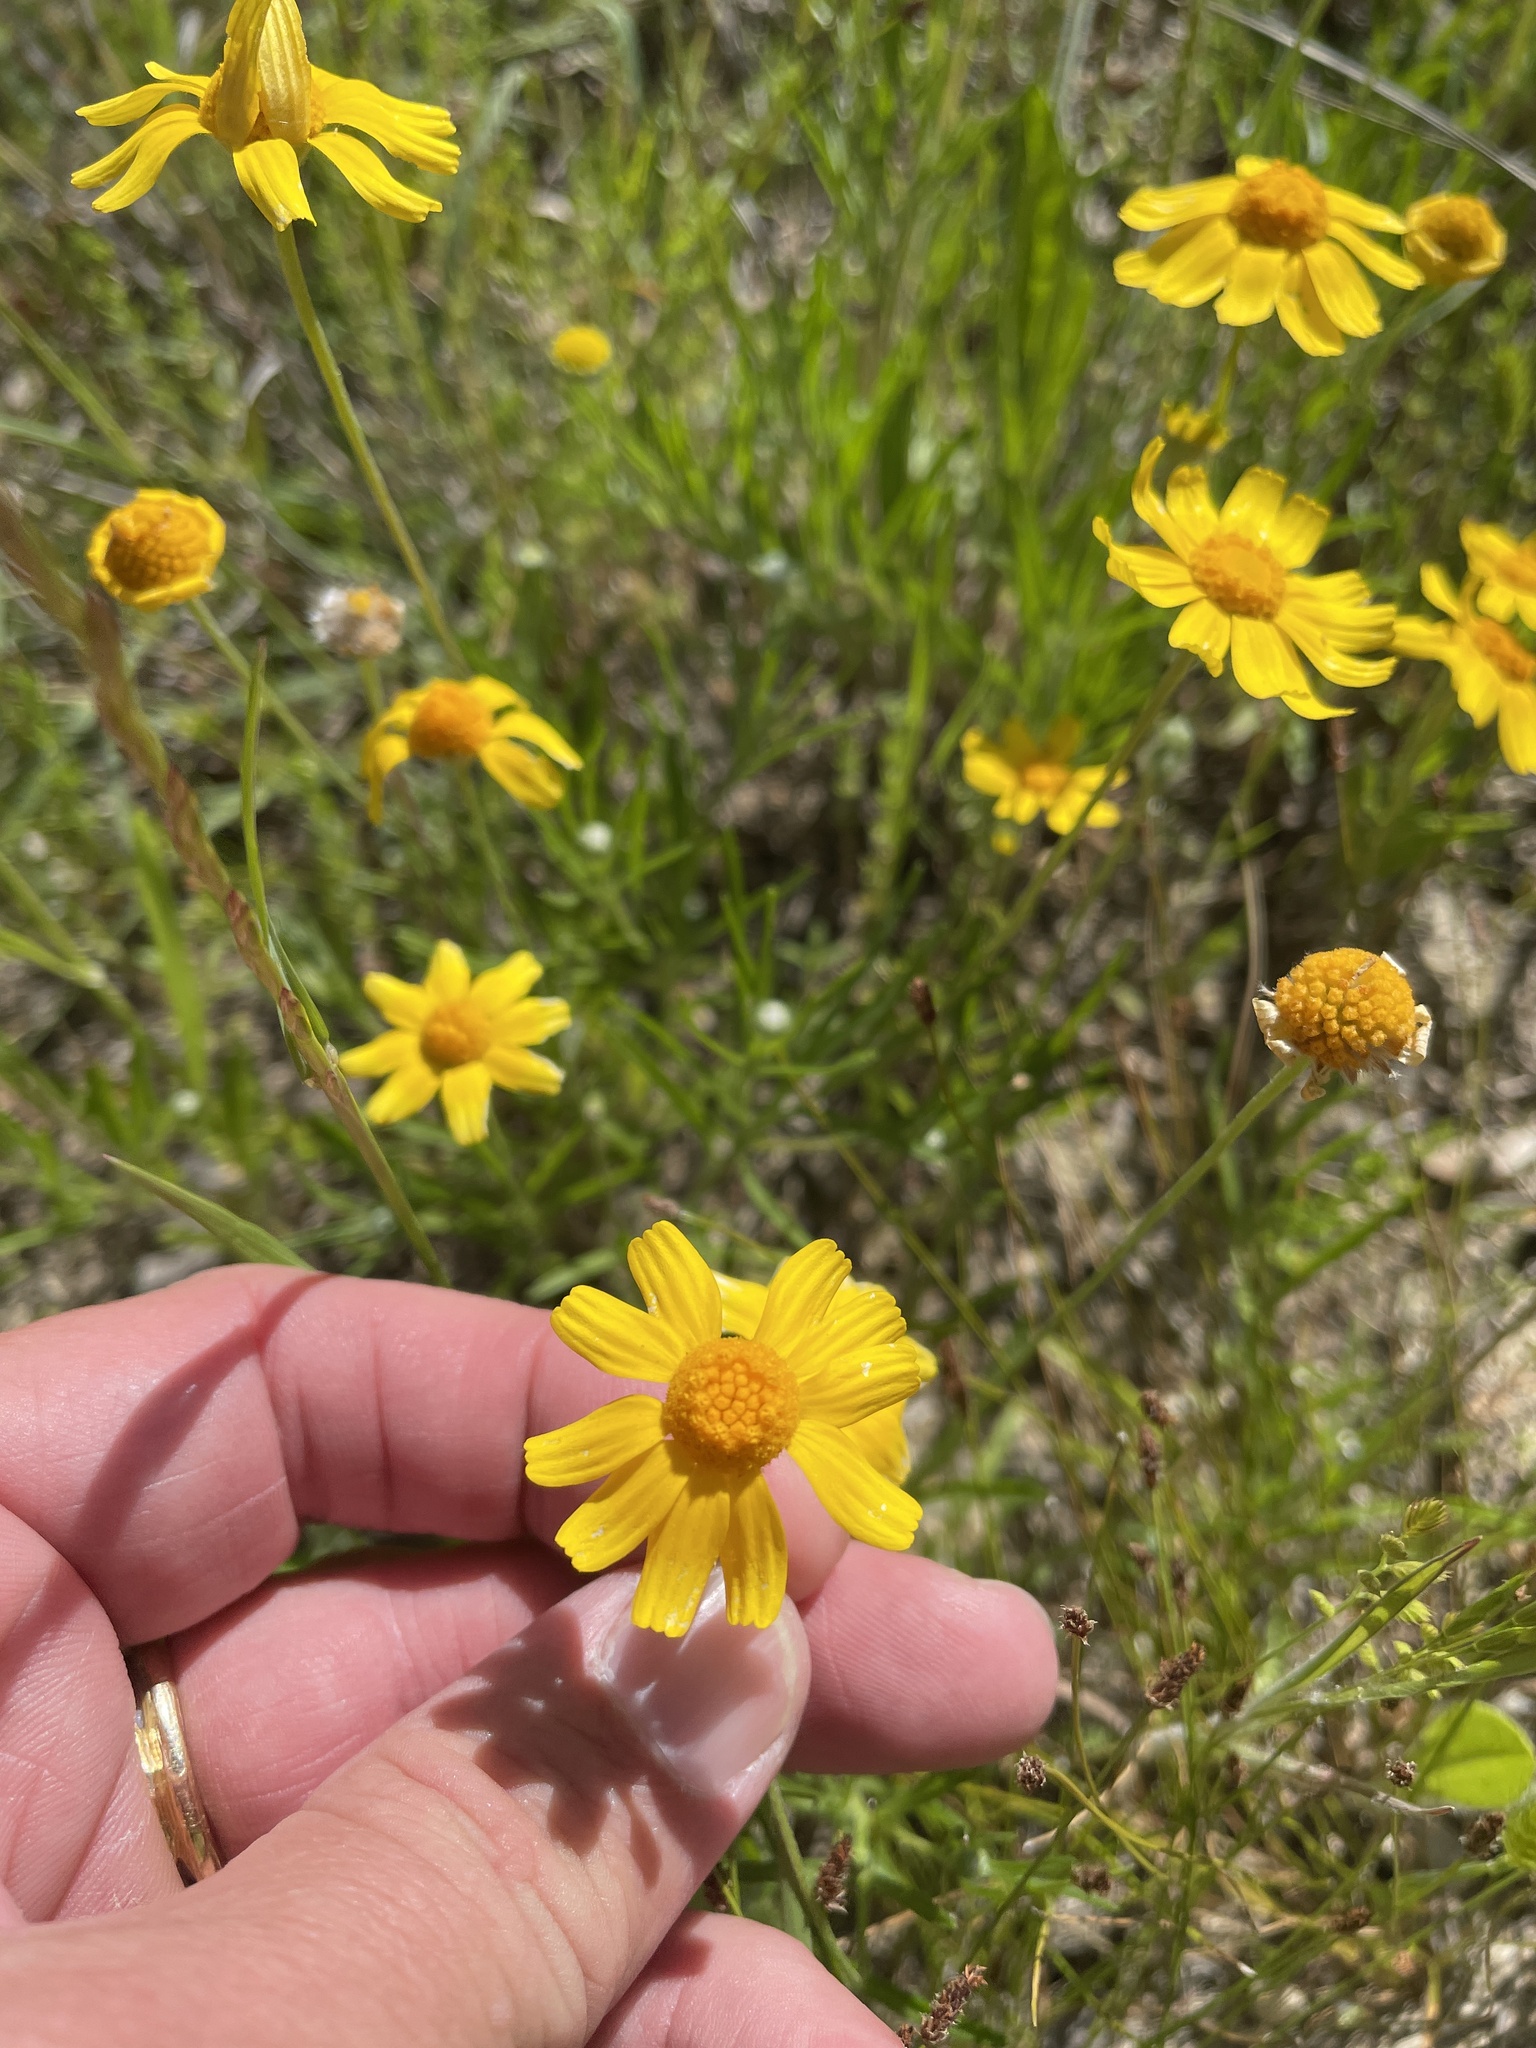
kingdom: Plantae
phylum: Tracheophyta
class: Magnoliopsida
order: Asterales
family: Asteraceae
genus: Tetraneuris
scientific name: Tetraneuris linearifolia
